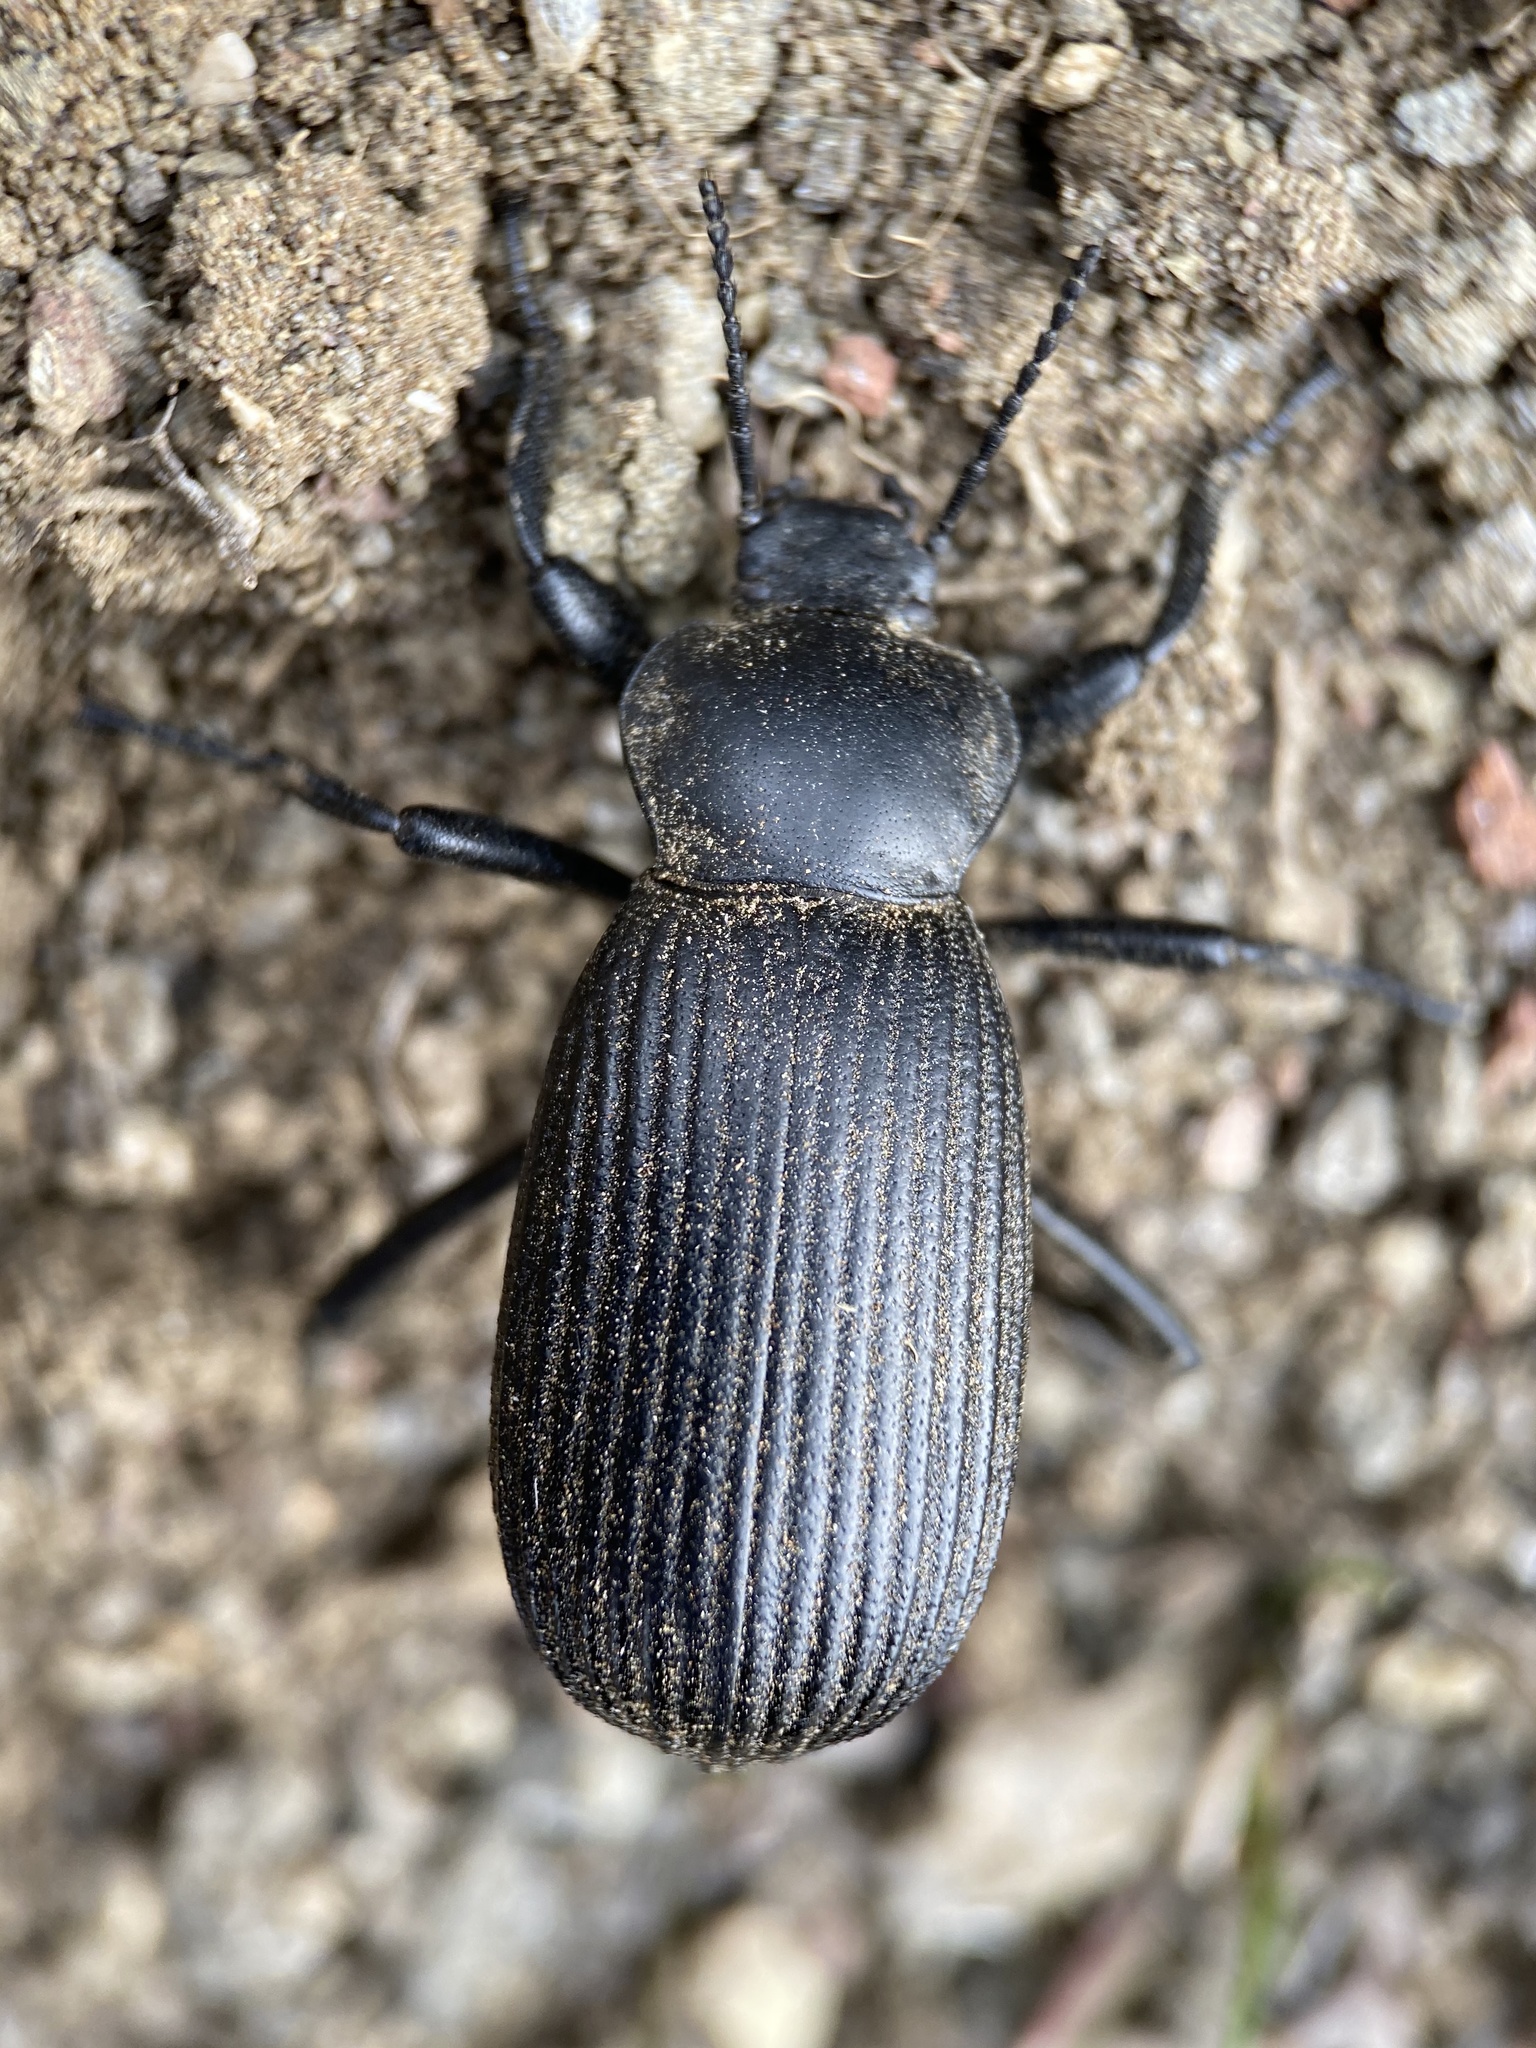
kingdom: Animalia
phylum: Arthropoda
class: Insecta
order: Coleoptera
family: Tenebrionidae
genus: Eleodes
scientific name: Eleodes obscura
